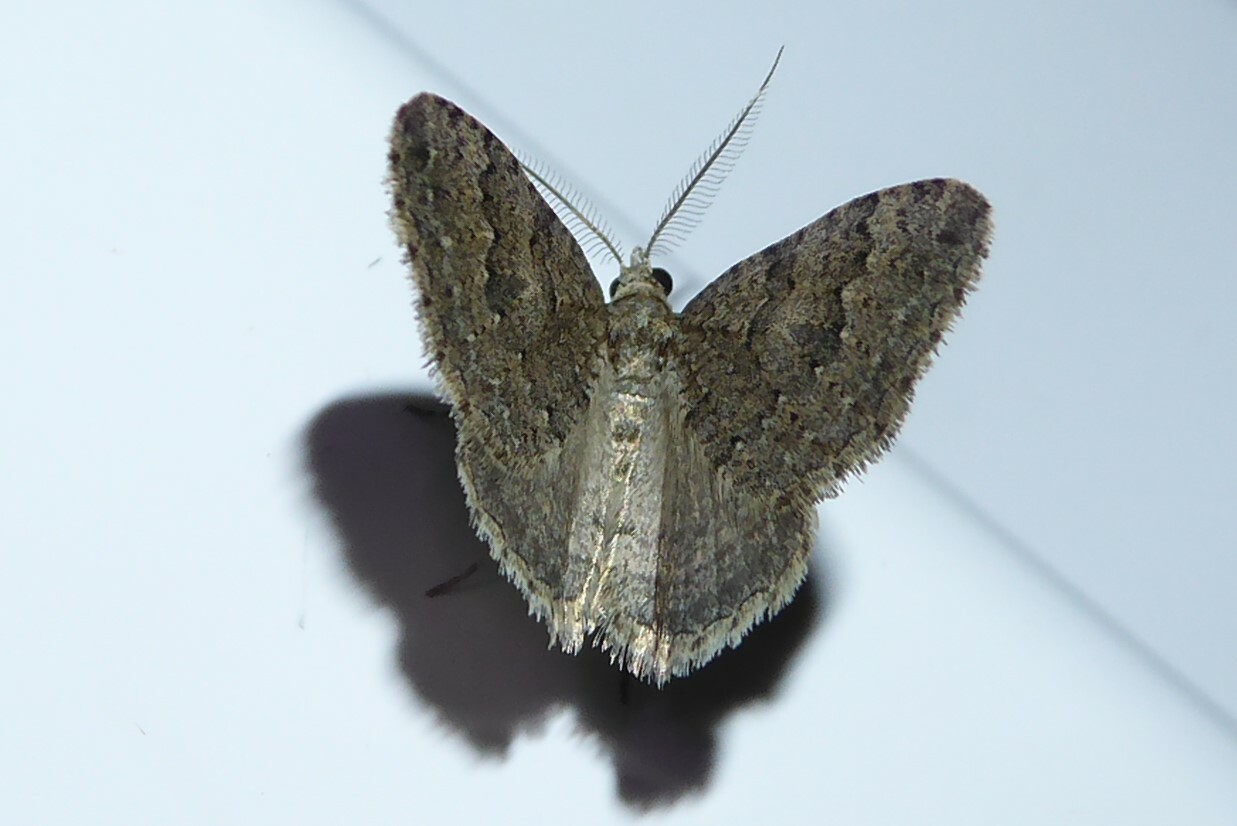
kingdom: Animalia
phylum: Arthropoda
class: Insecta
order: Lepidoptera
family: Geometridae
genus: Helastia
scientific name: Helastia corcularia
